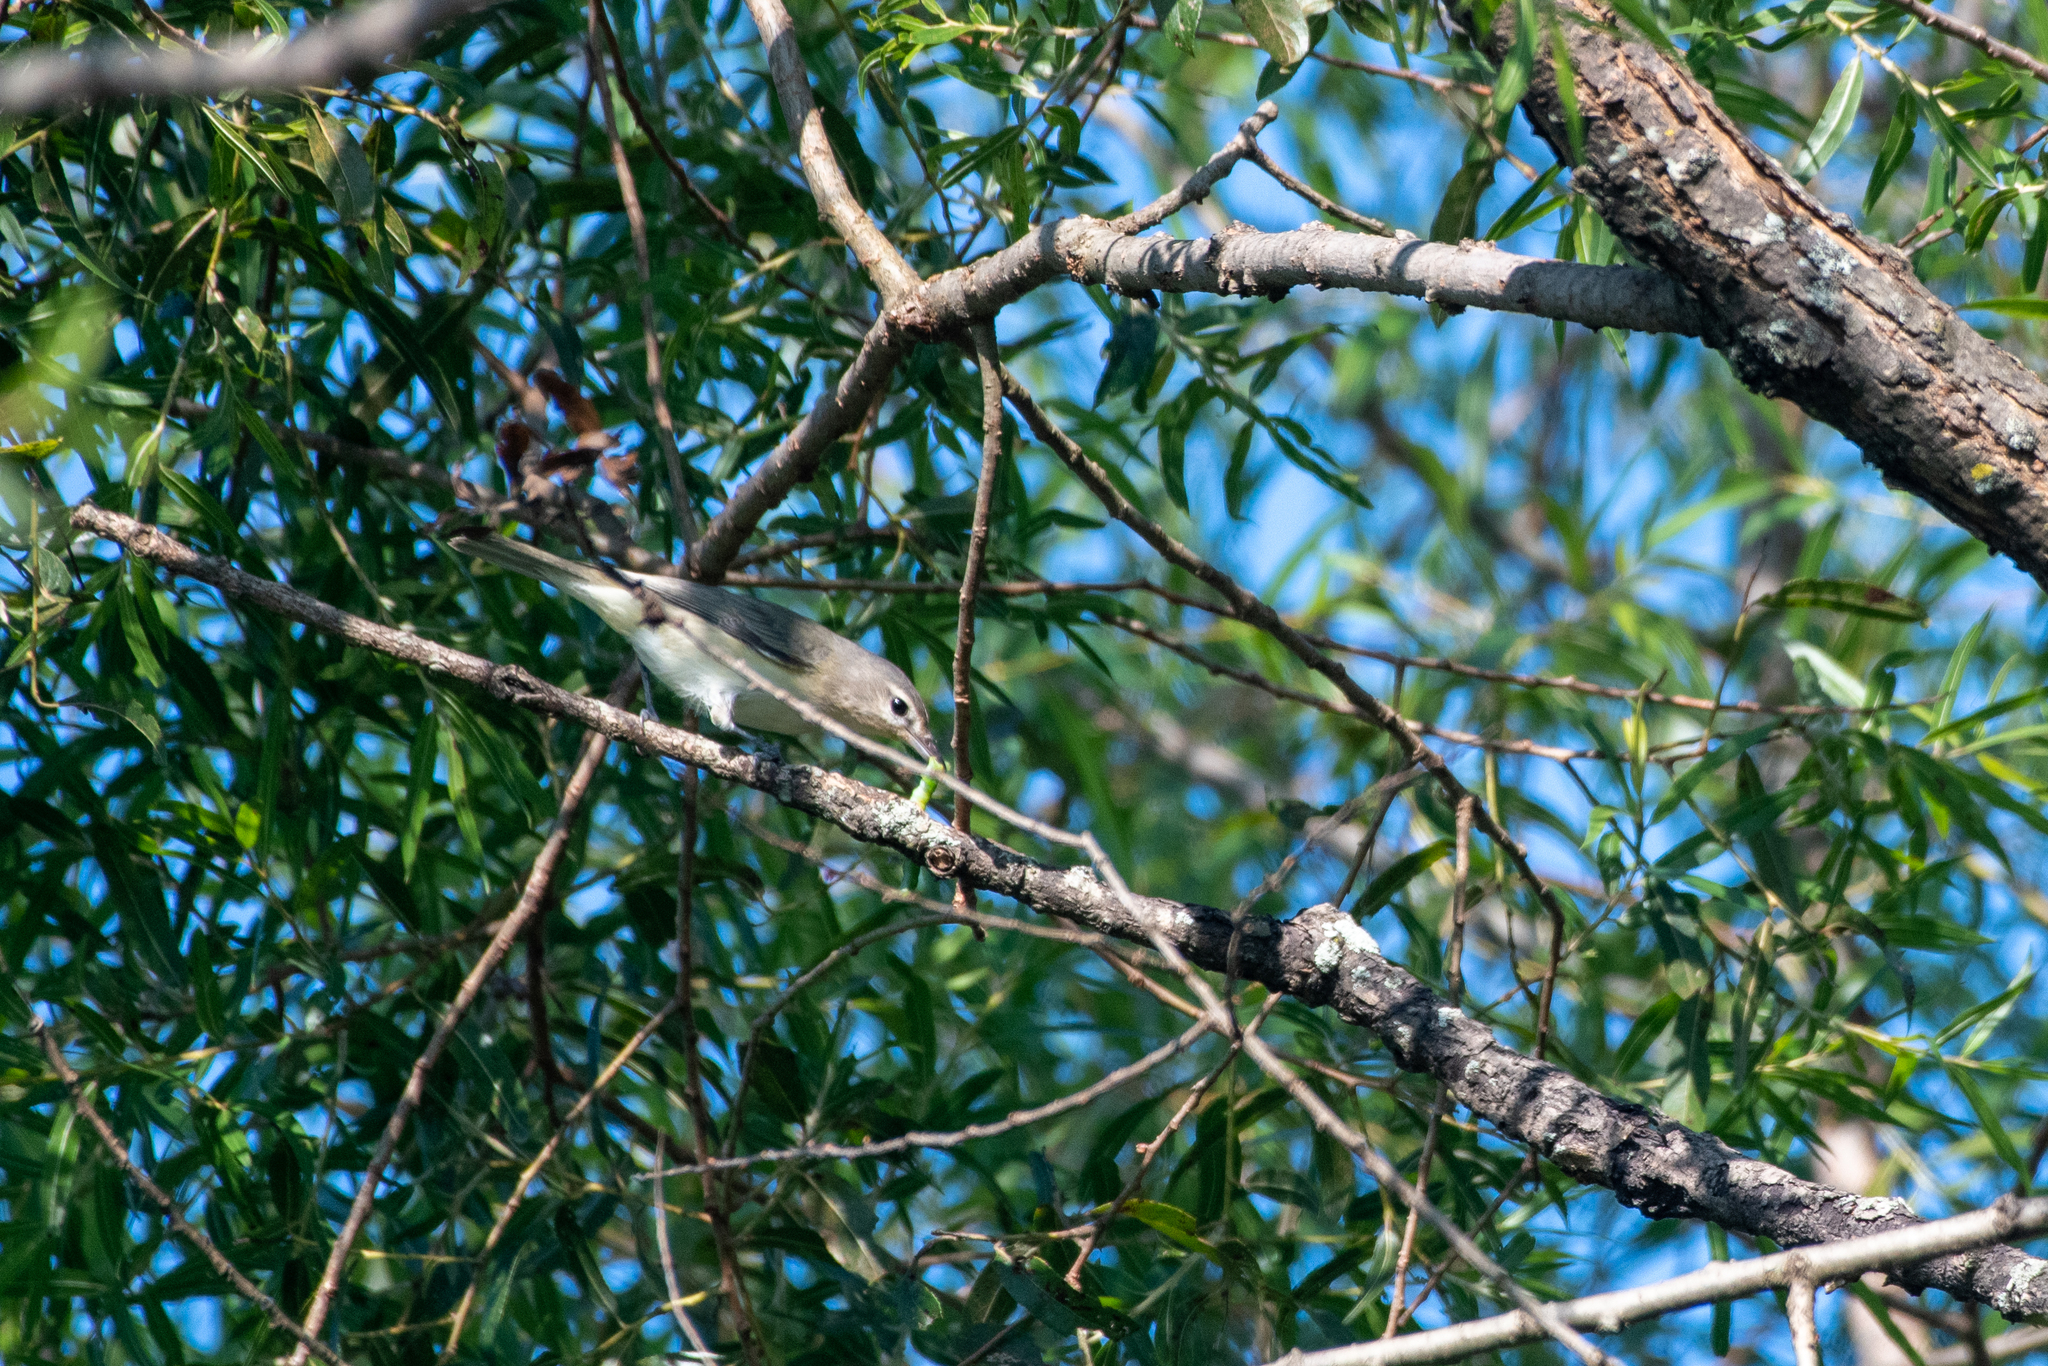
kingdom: Animalia
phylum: Chordata
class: Aves
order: Passeriformes
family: Vireonidae
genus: Vireo
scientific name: Vireo gilvus
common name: Warbling vireo
